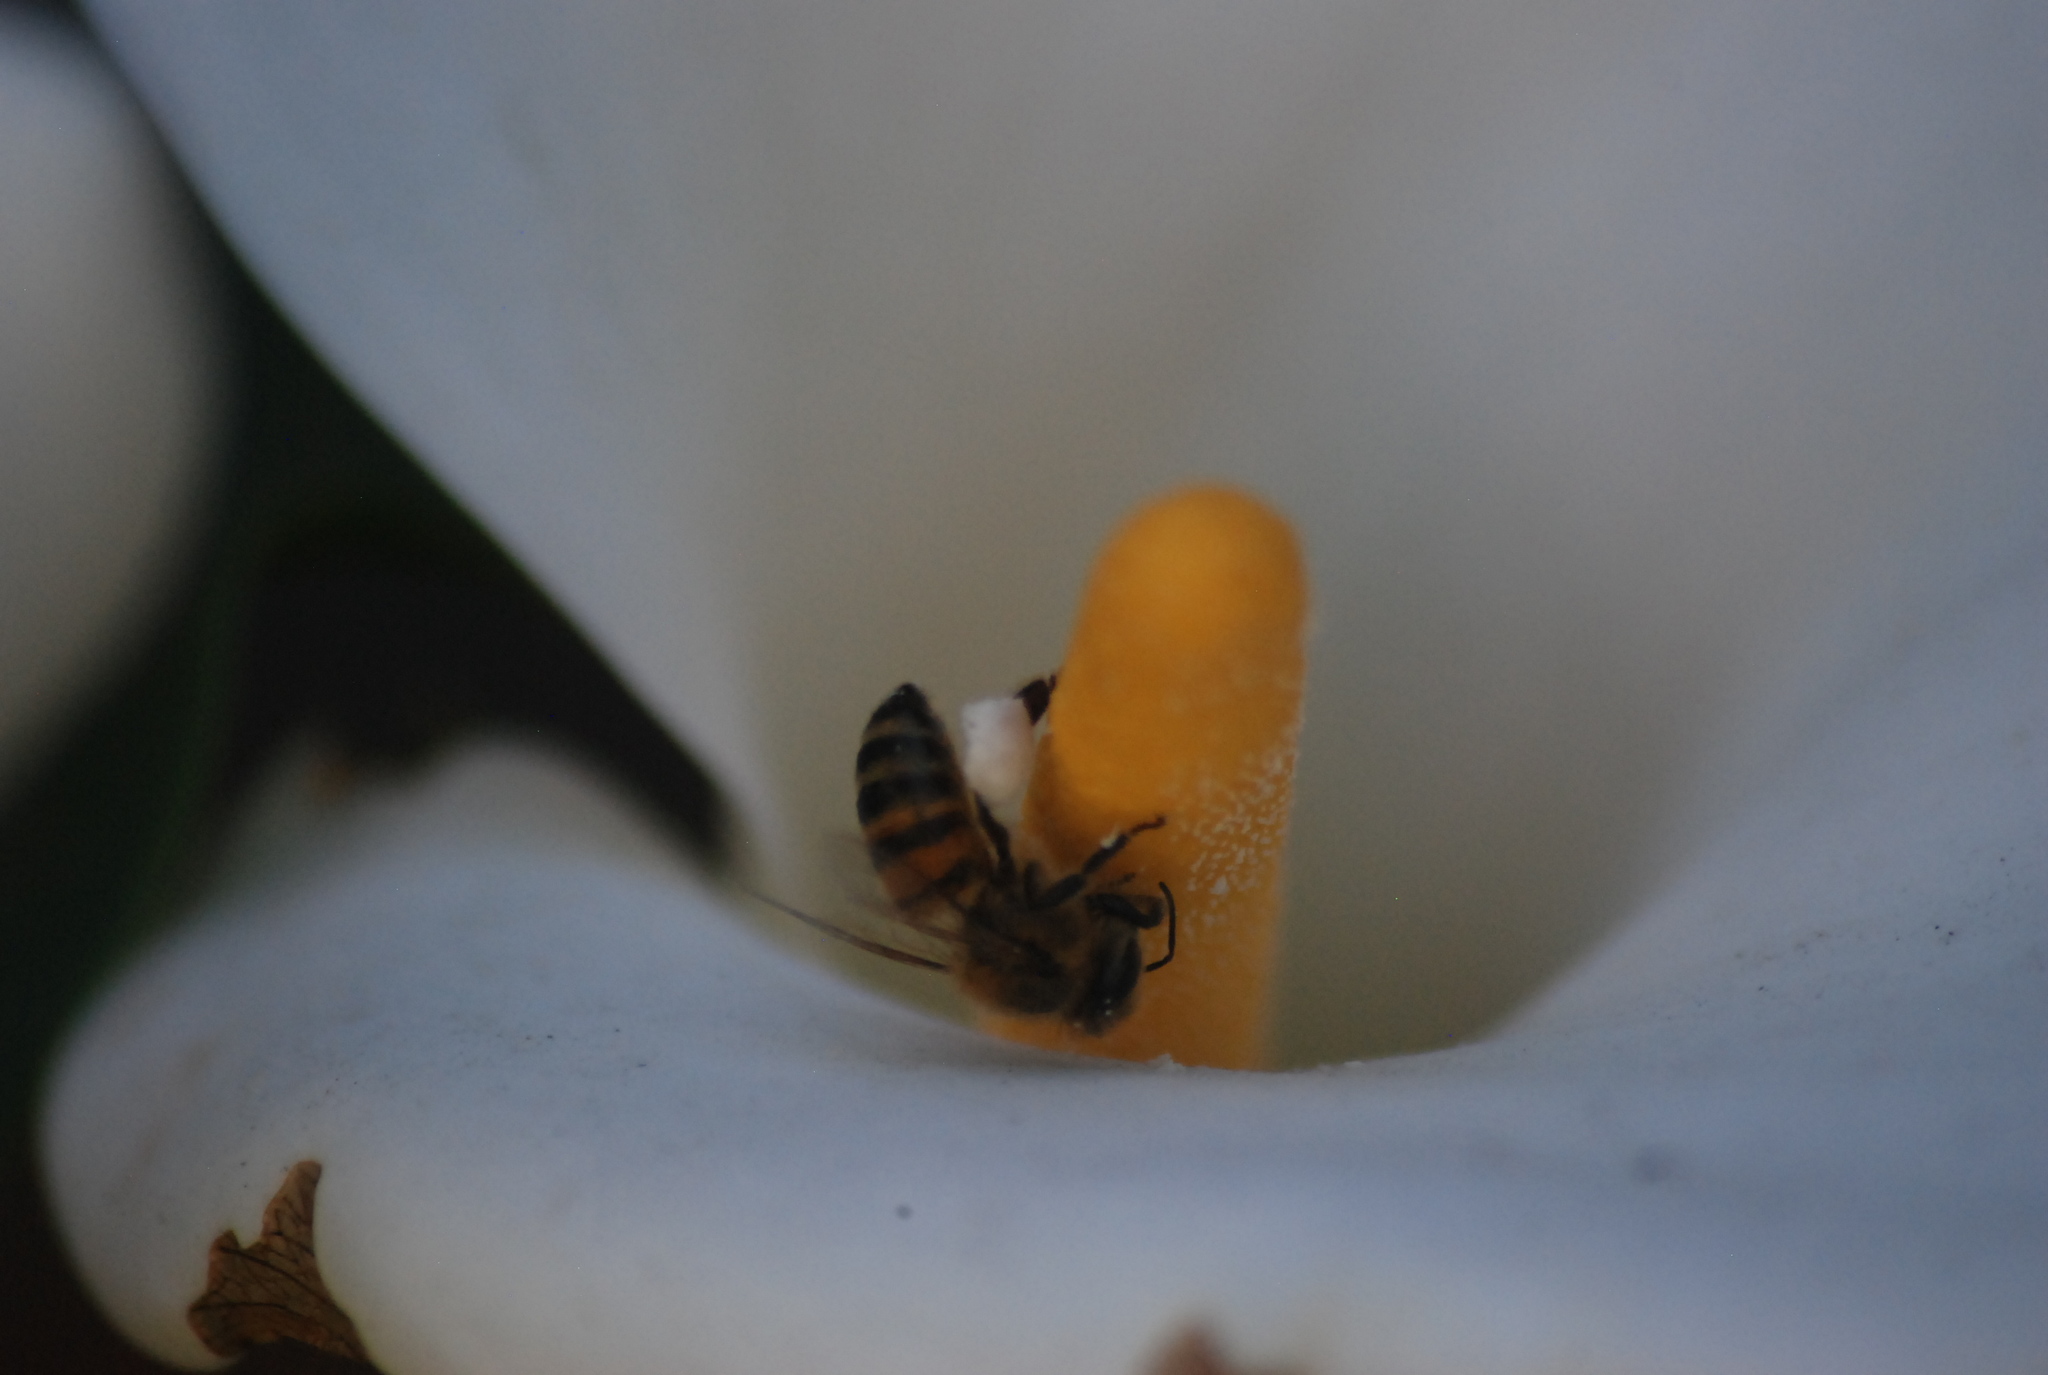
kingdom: Animalia
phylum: Arthropoda
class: Insecta
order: Hymenoptera
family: Apidae
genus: Apis
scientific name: Apis mellifera
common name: Honey bee
